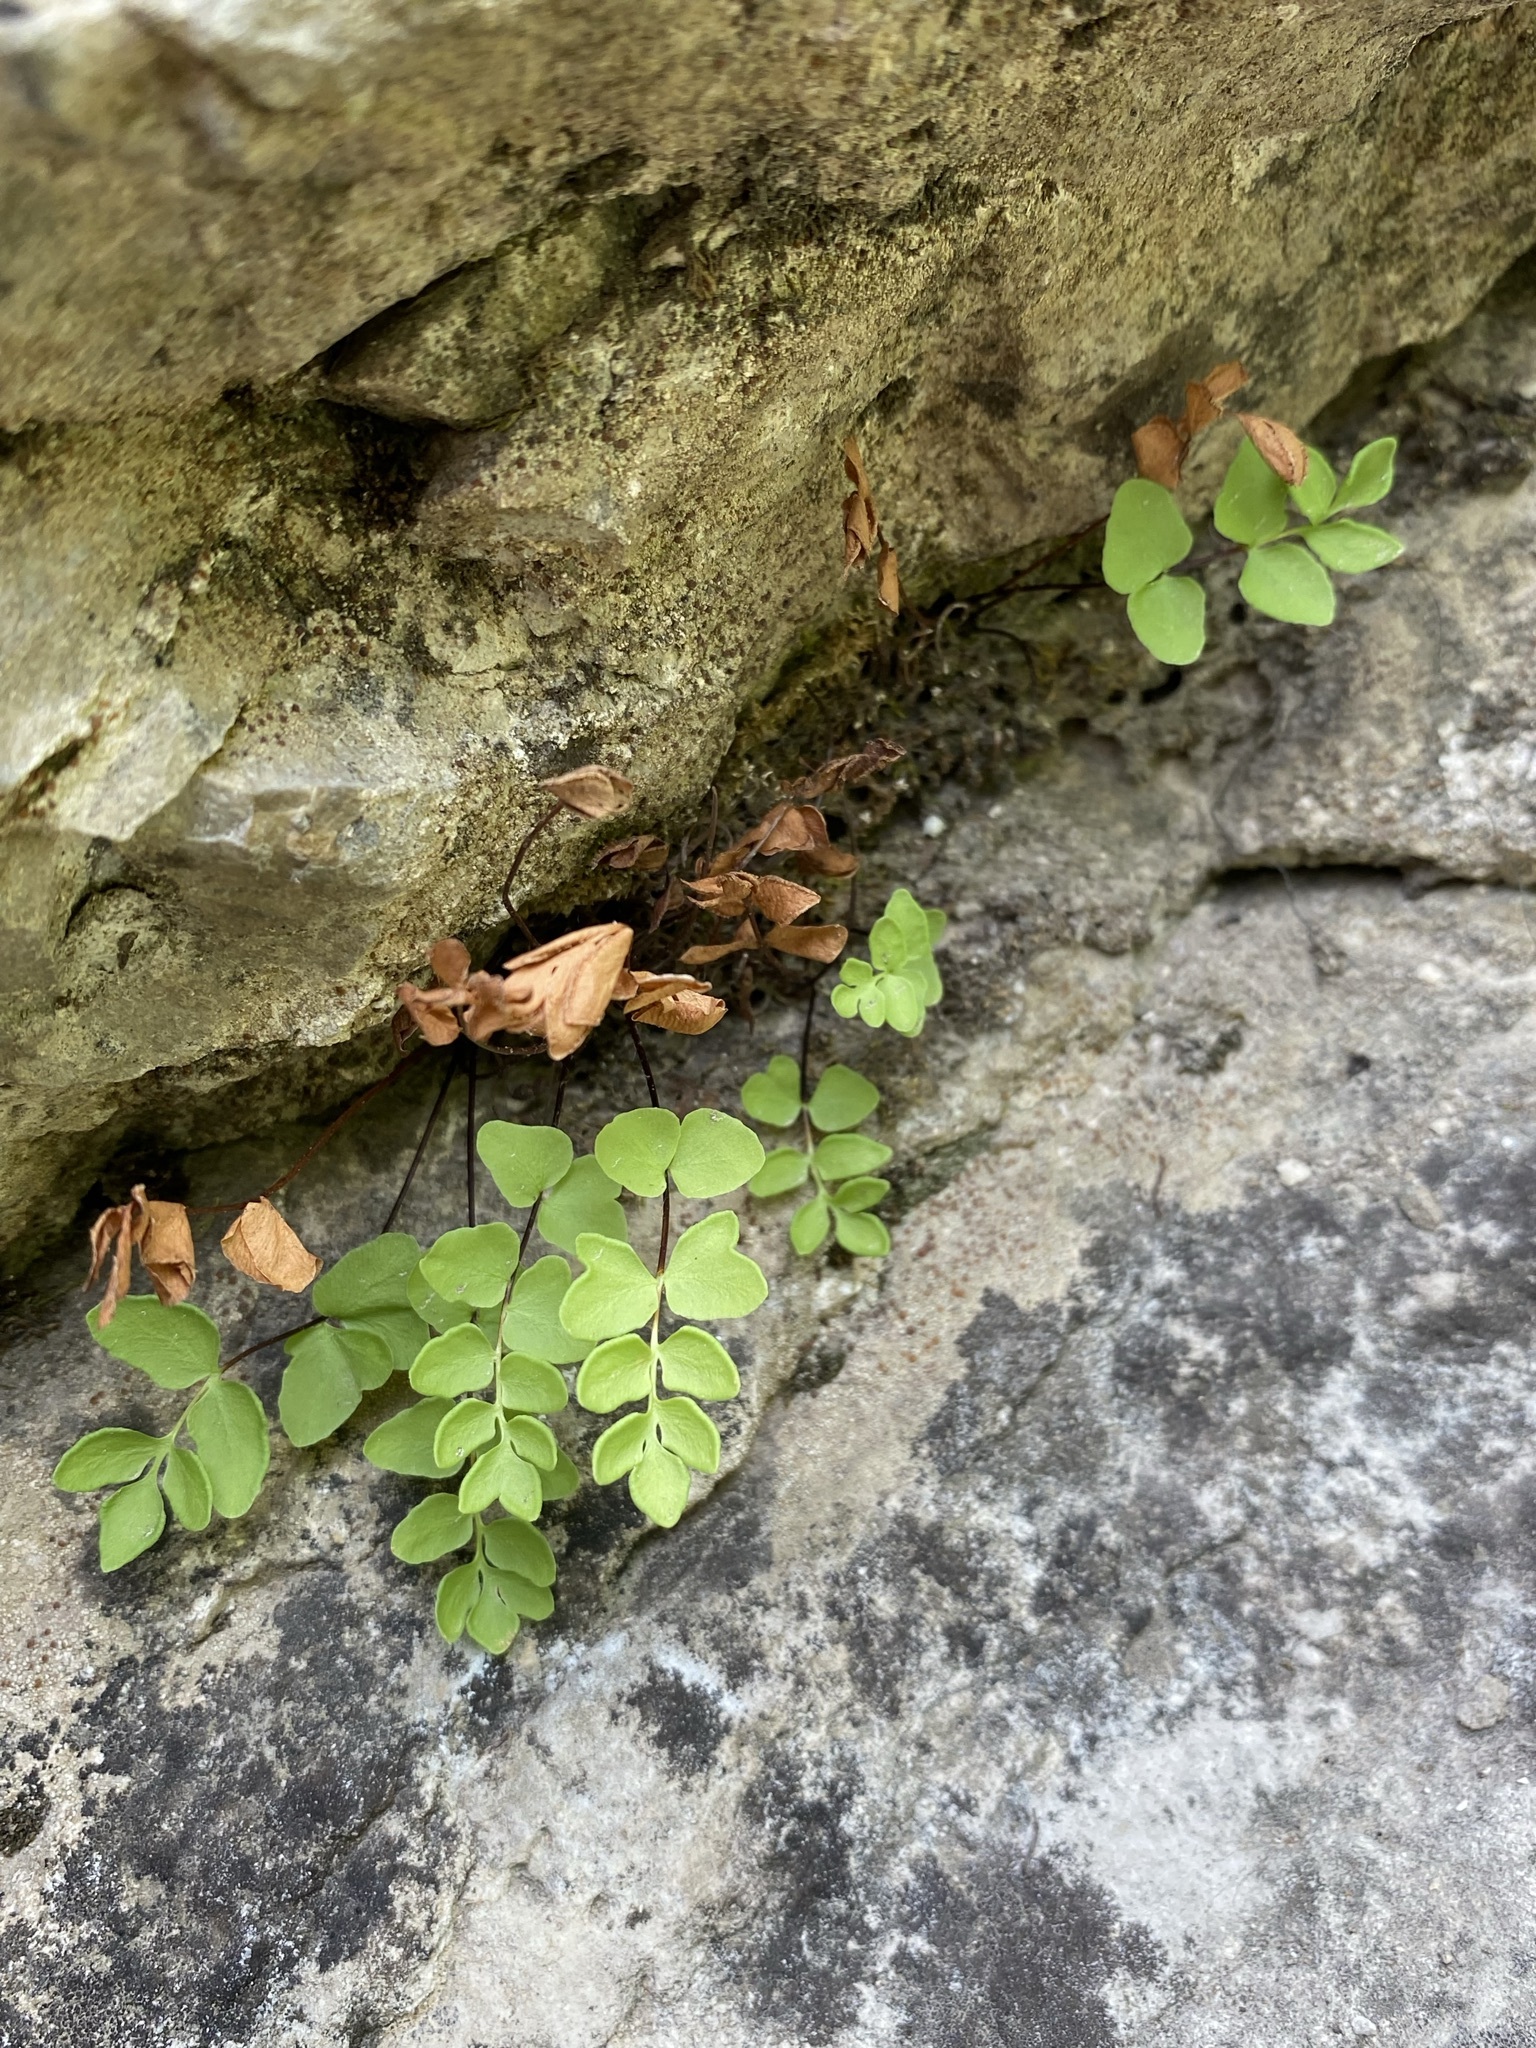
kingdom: Plantae
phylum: Tracheophyta
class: Polypodiopsida
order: Polypodiales
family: Pteridaceae
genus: Pellaea
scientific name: Pellaea breweri
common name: Brewer's cliffbrake
